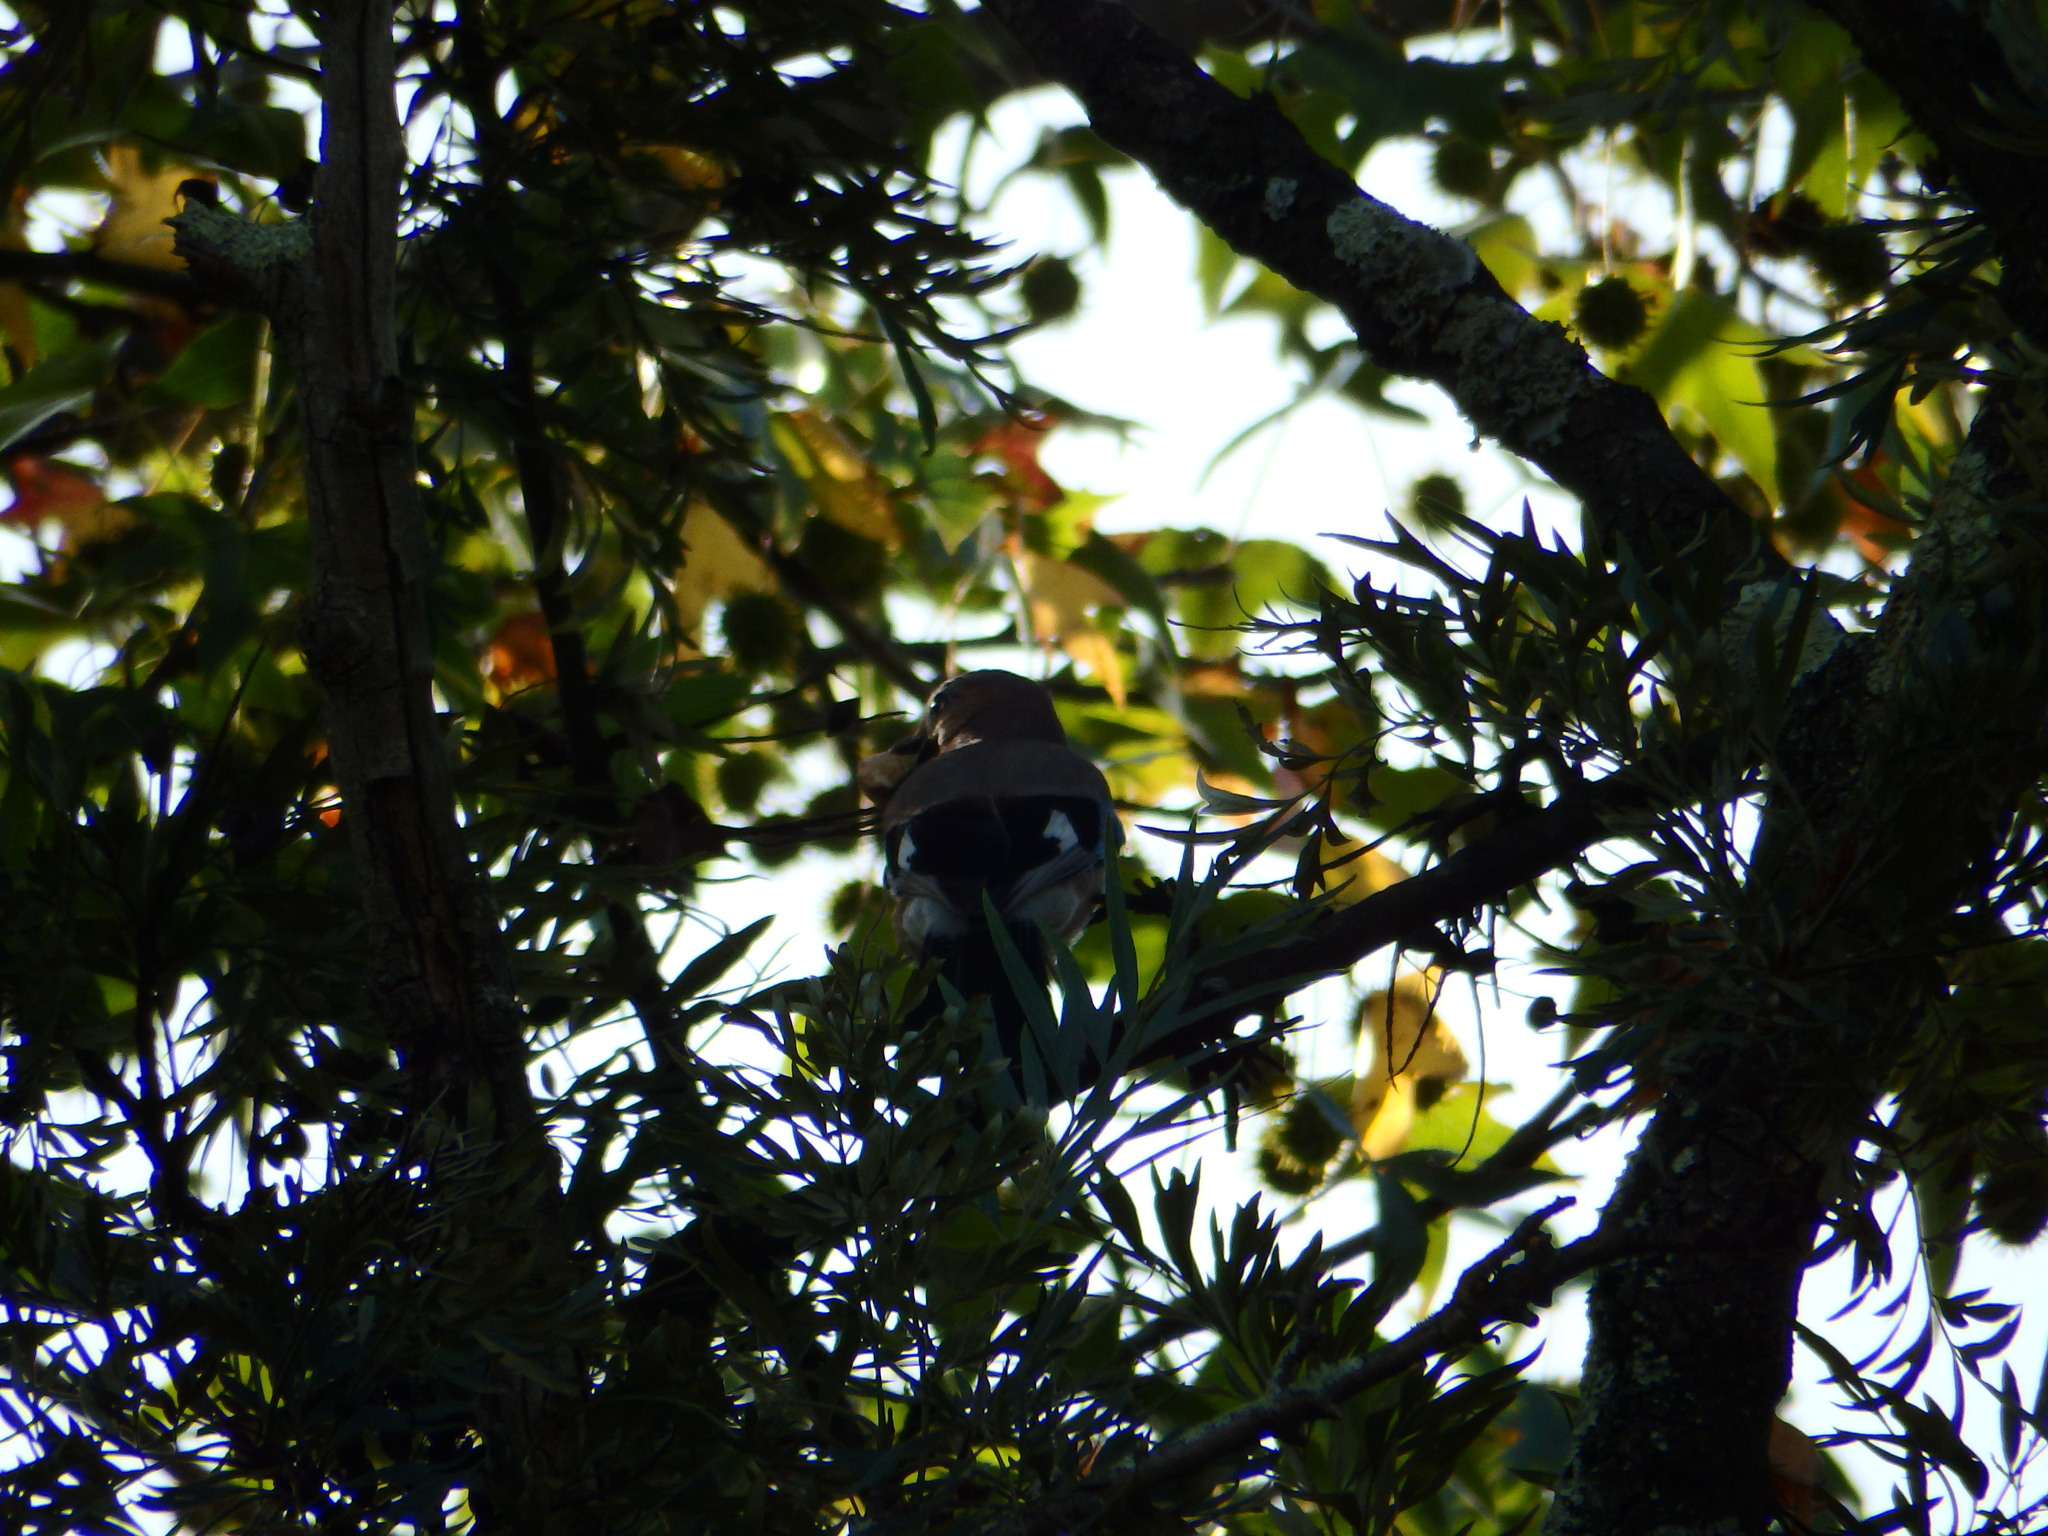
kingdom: Animalia
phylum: Chordata
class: Aves
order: Passeriformes
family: Corvidae
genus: Garrulus
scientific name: Garrulus glandarius
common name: Eurasian jay
